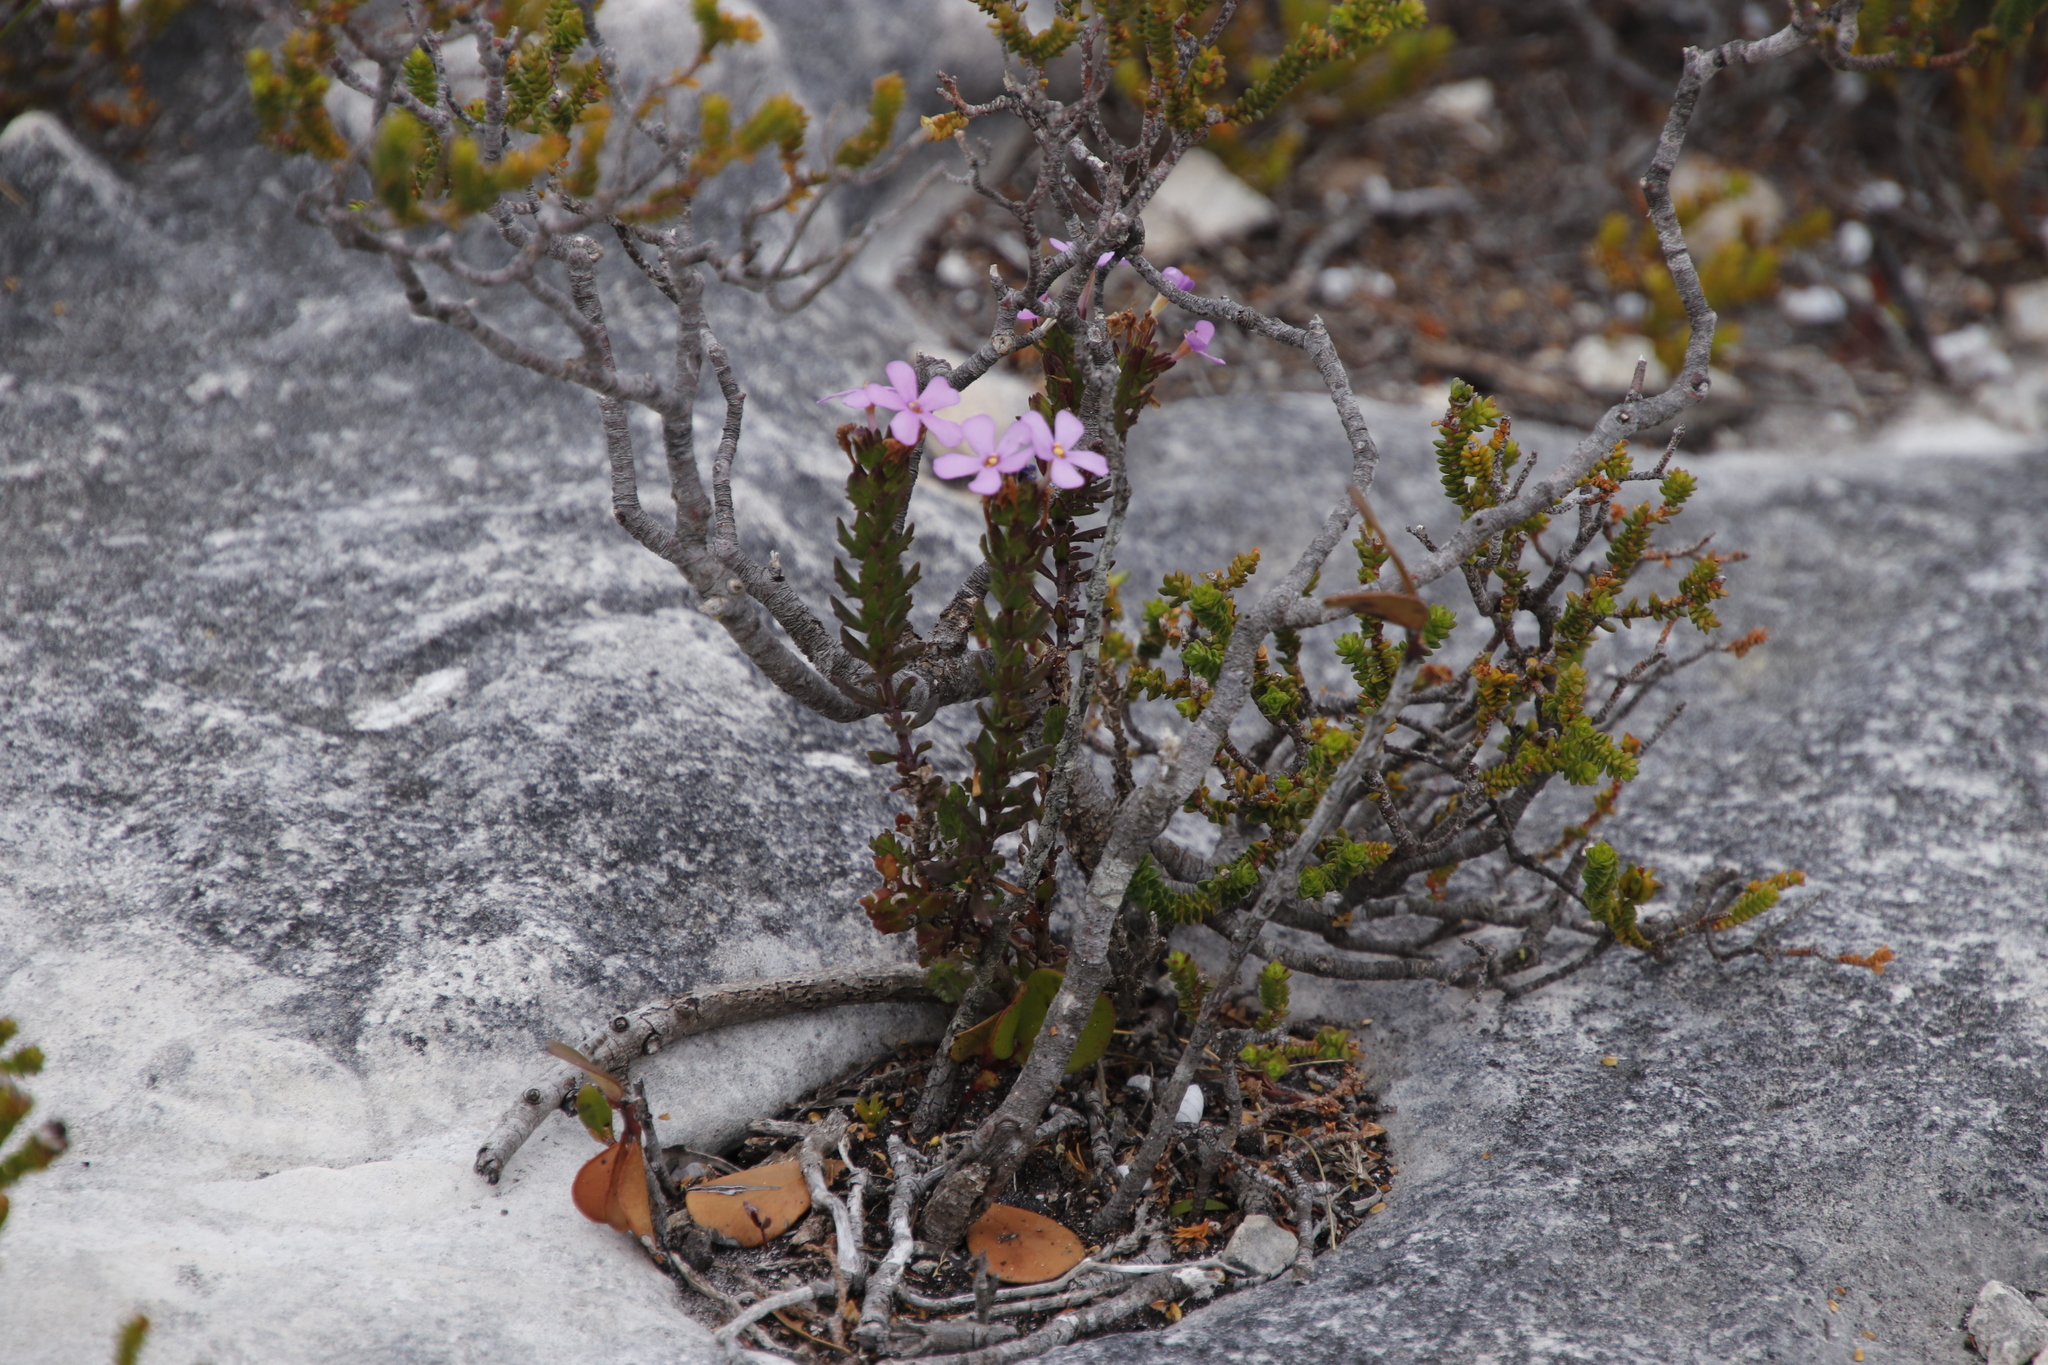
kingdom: Plantae
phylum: Tracheophyta
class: Magnoliopsida
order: Lamiales
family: Scrophulariaceae
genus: Chaenostoma
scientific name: Chaenostoma subspicata
